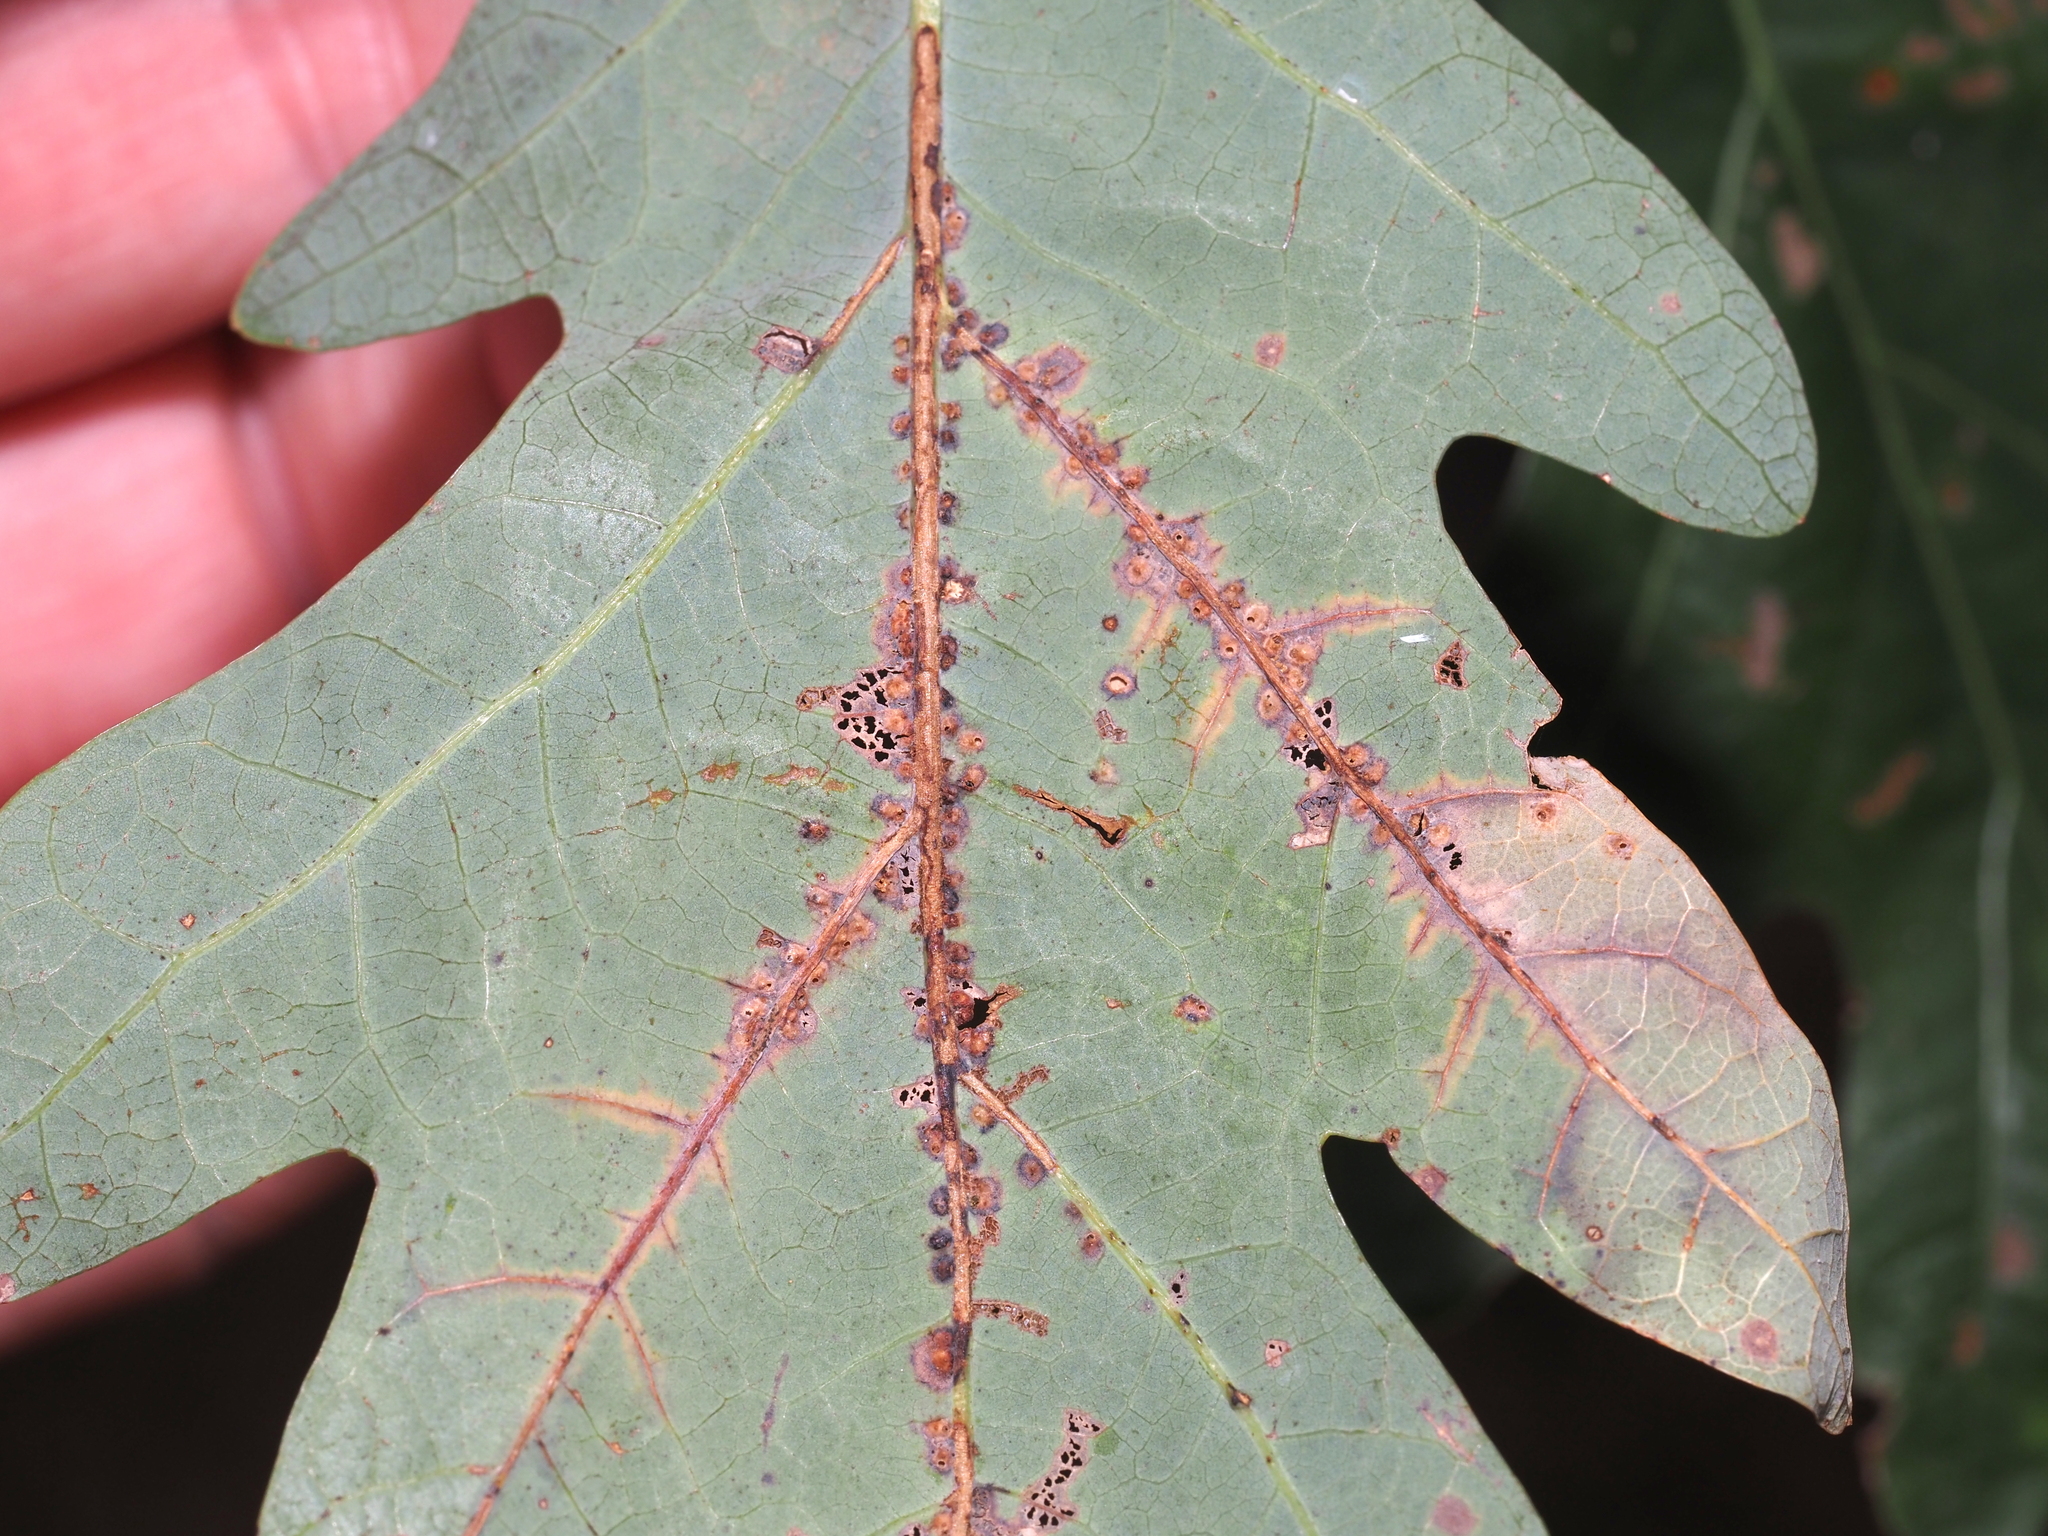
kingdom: Animalia
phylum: Arthropoda
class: Insecta
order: Hymenoptera
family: Cynipidae
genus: Neuroterus
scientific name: Neuroterus niger
